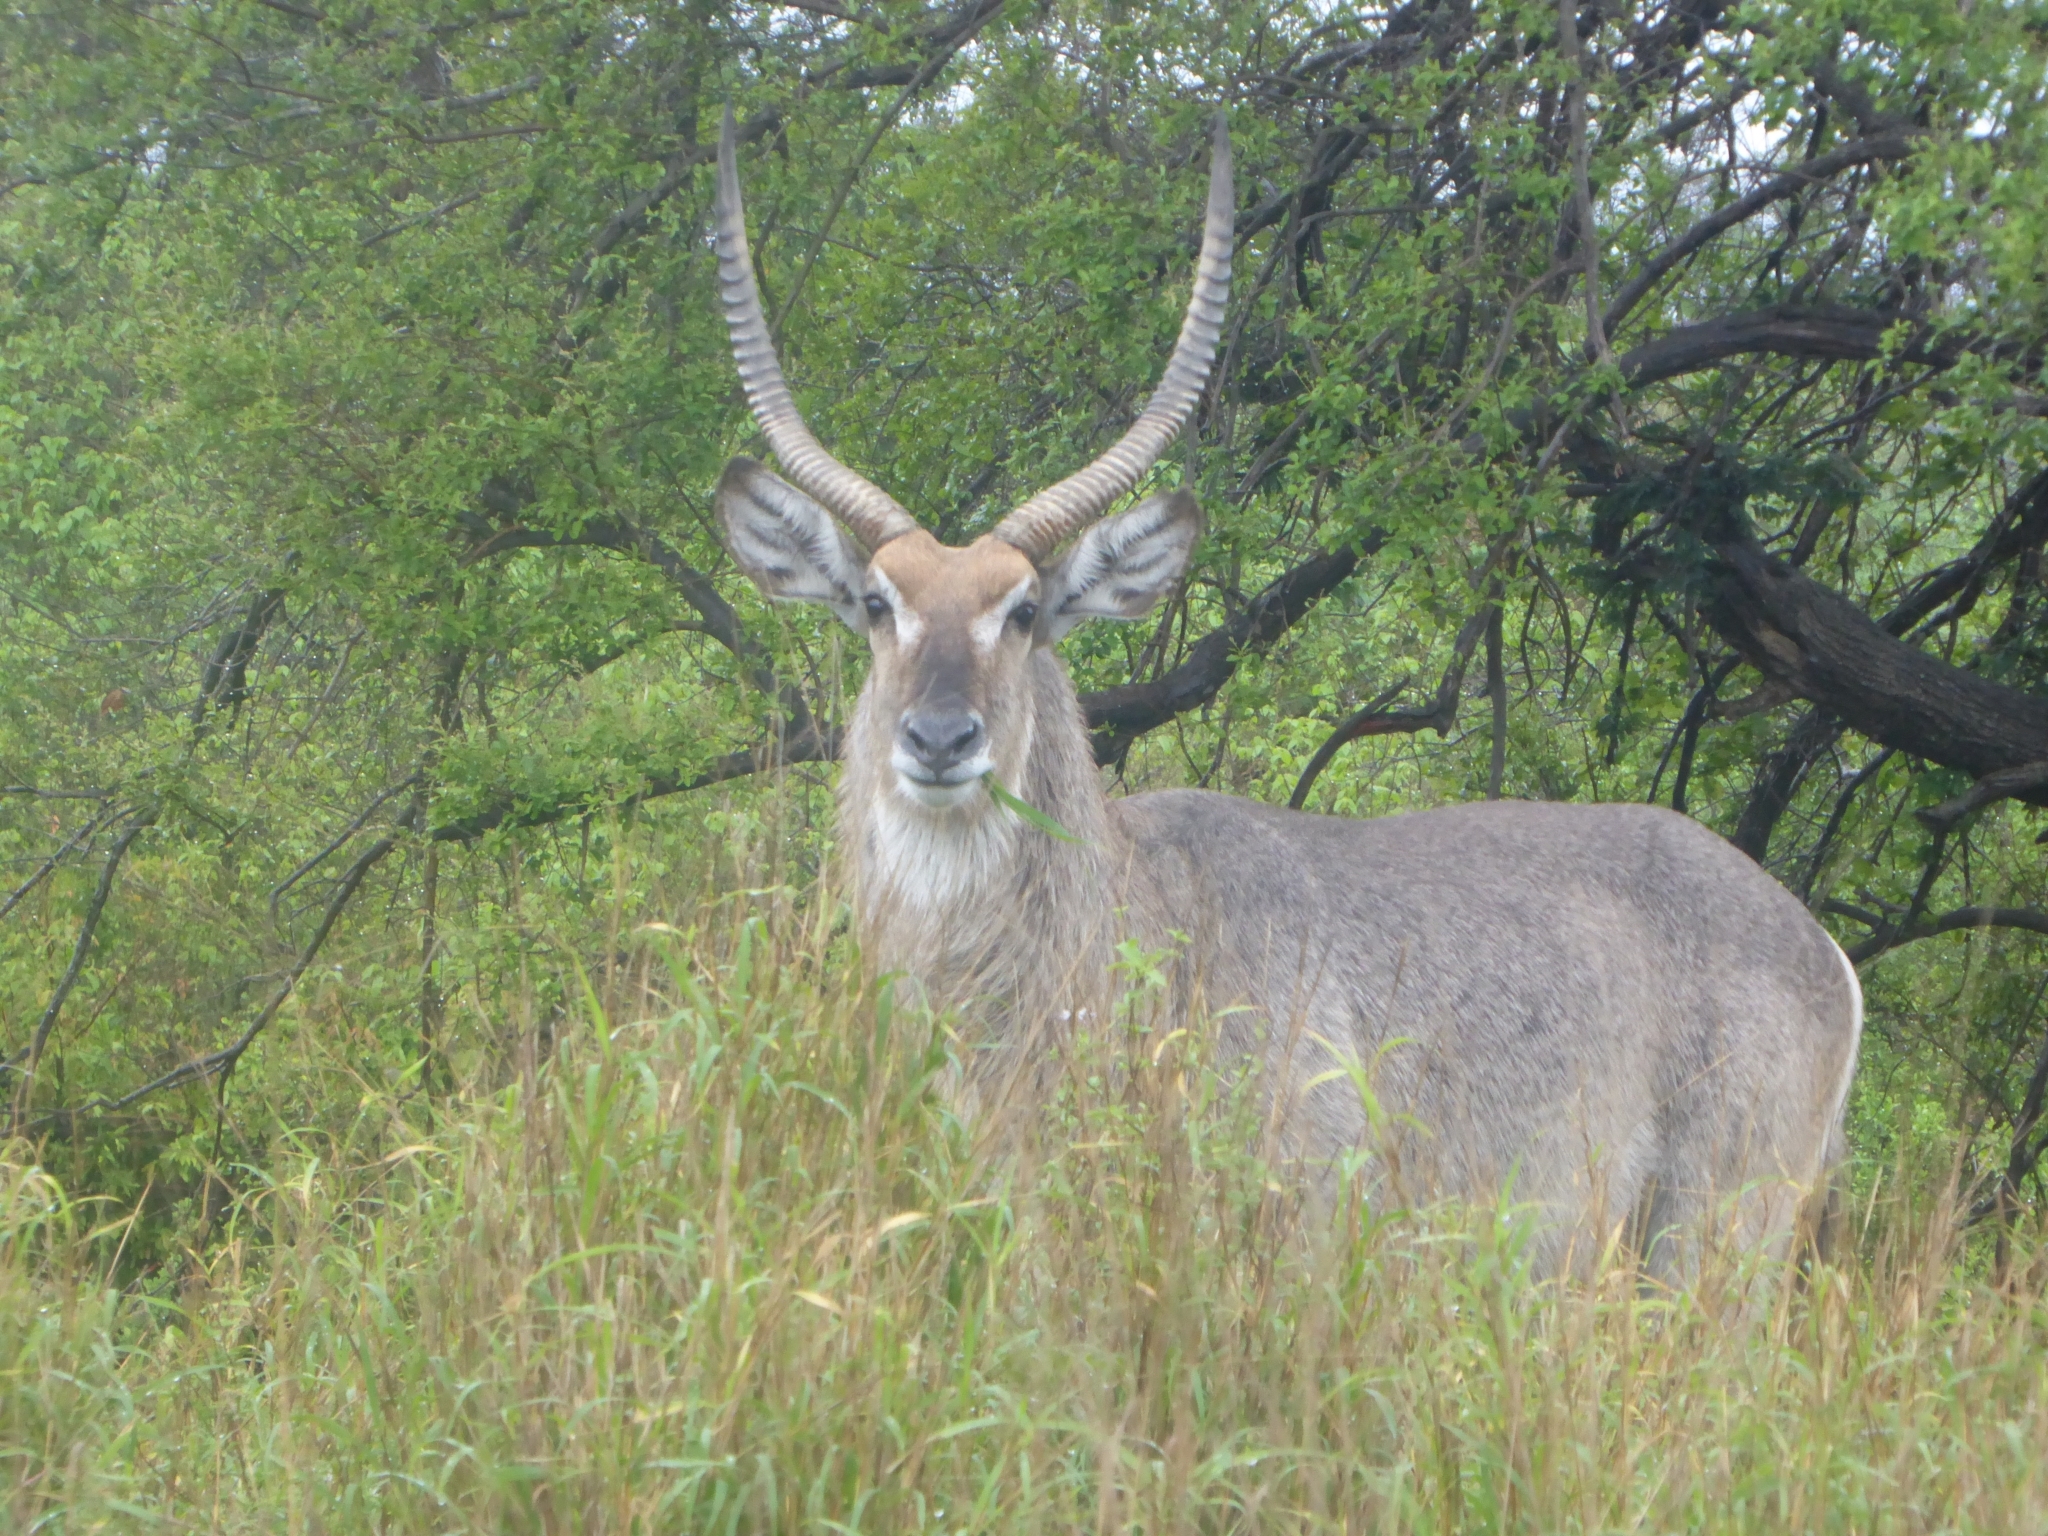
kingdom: Animalia
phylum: Chordata
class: Mammalia
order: Artiodactyla
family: Bovidae
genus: Kobus
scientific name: Kobus ellipsiprymnus
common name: Waterbuck
